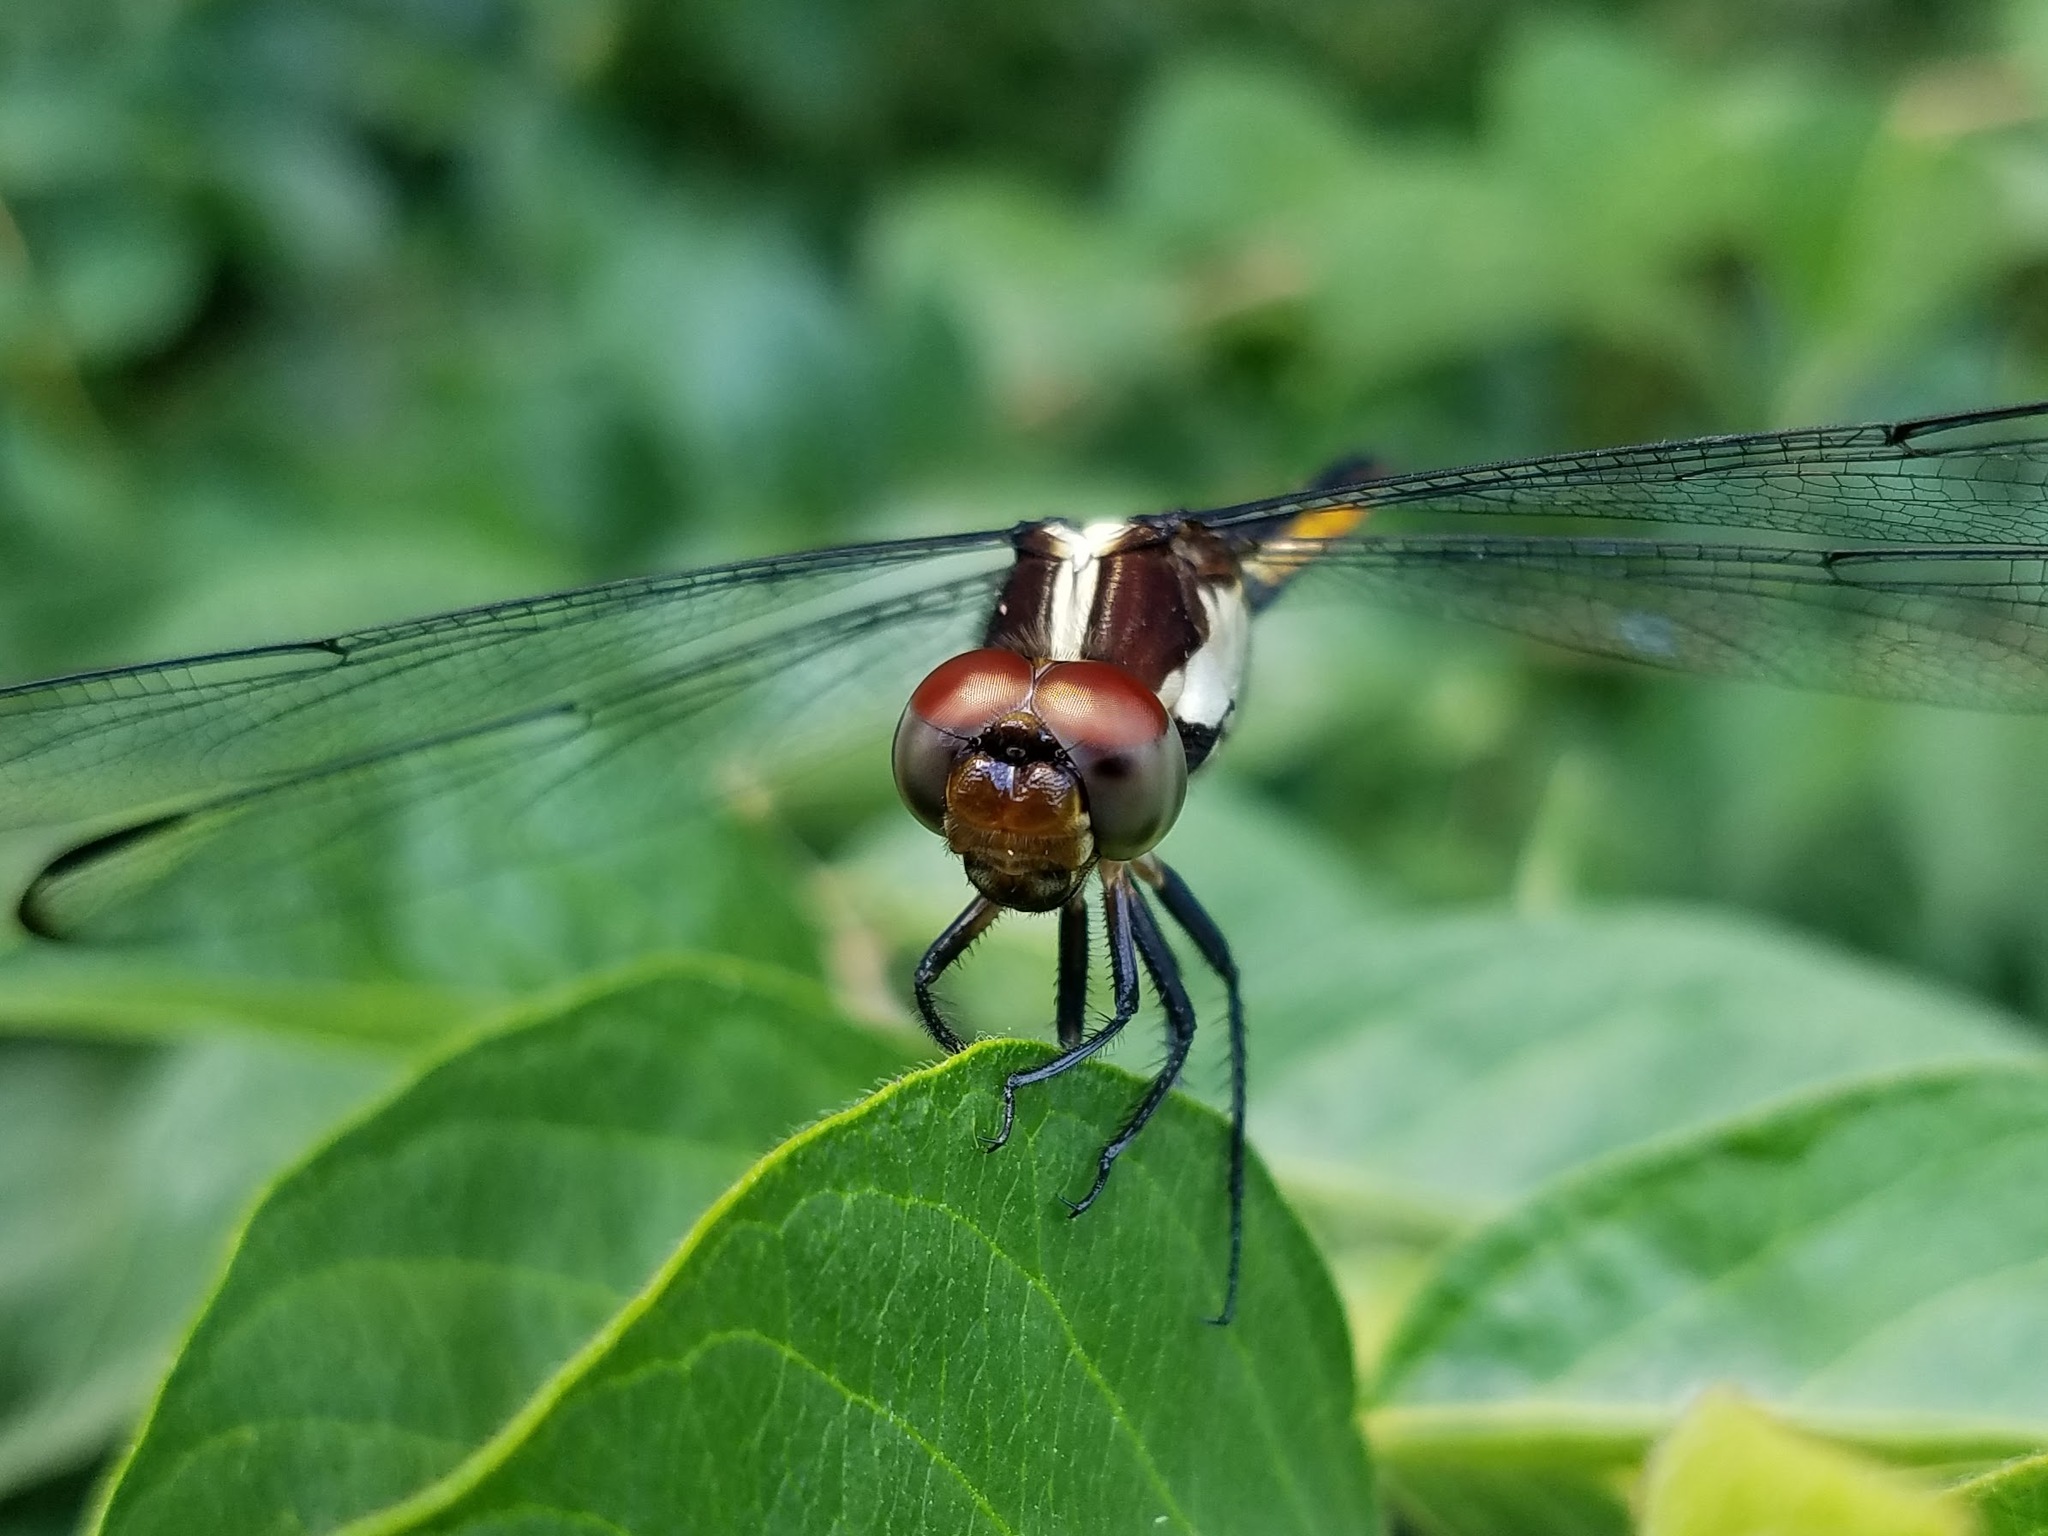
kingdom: Animalia
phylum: Arthropoda
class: Insecta
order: Odonata
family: Libellulidae
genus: Libellula
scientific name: Libellula incesta
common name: Slaty skimmer
